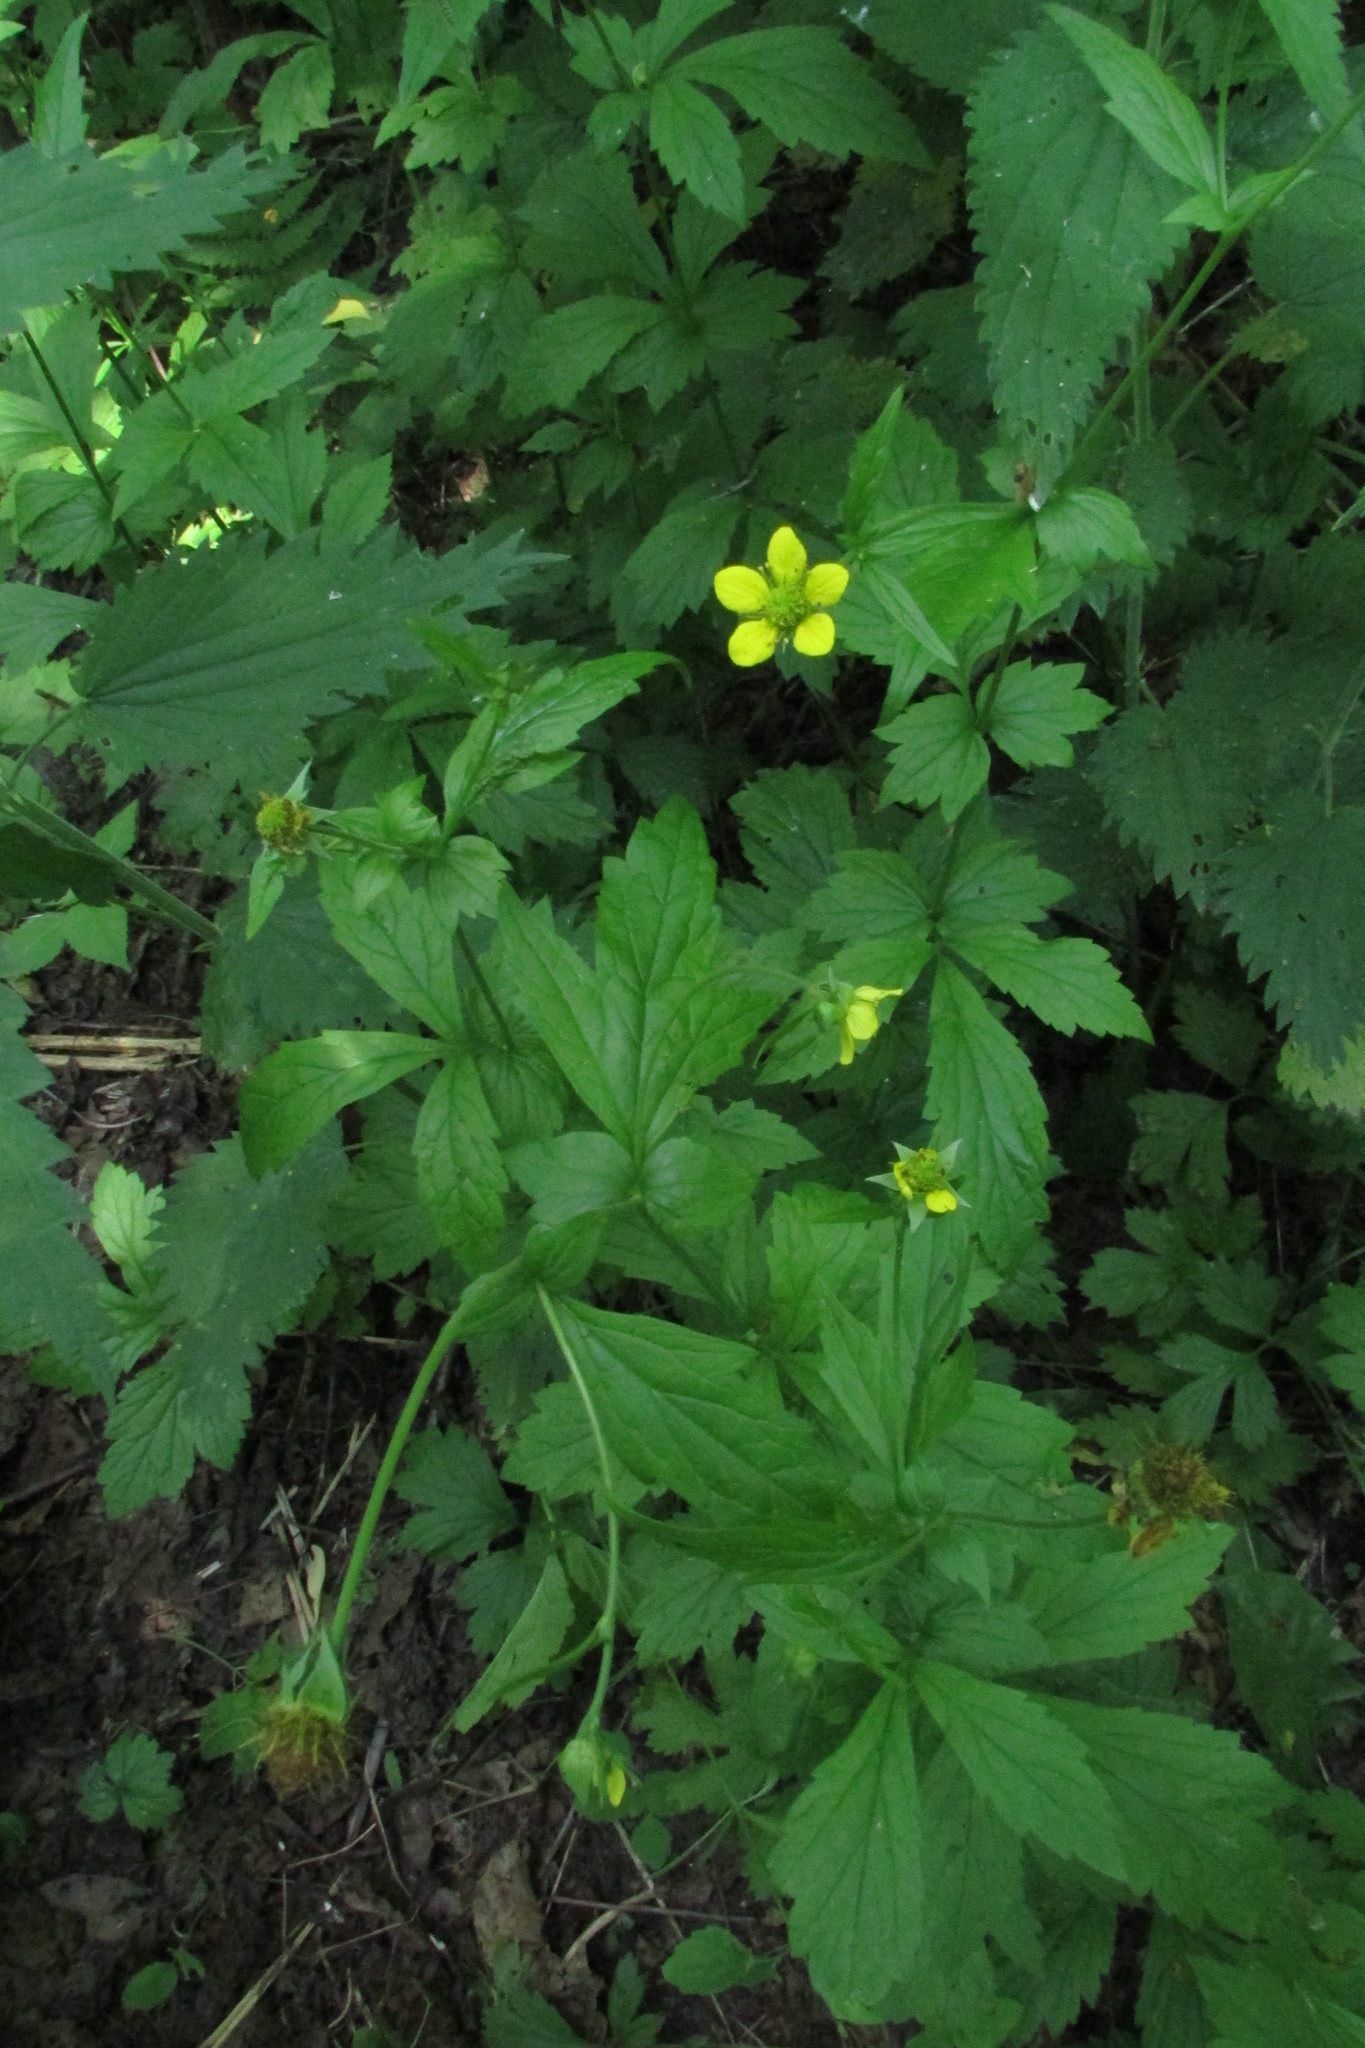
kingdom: Plantae
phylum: Tracheophyta
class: Magnoliopsida
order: Rosales
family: Rosaceae
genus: Geum
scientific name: Geum urbanum
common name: Wood avens
